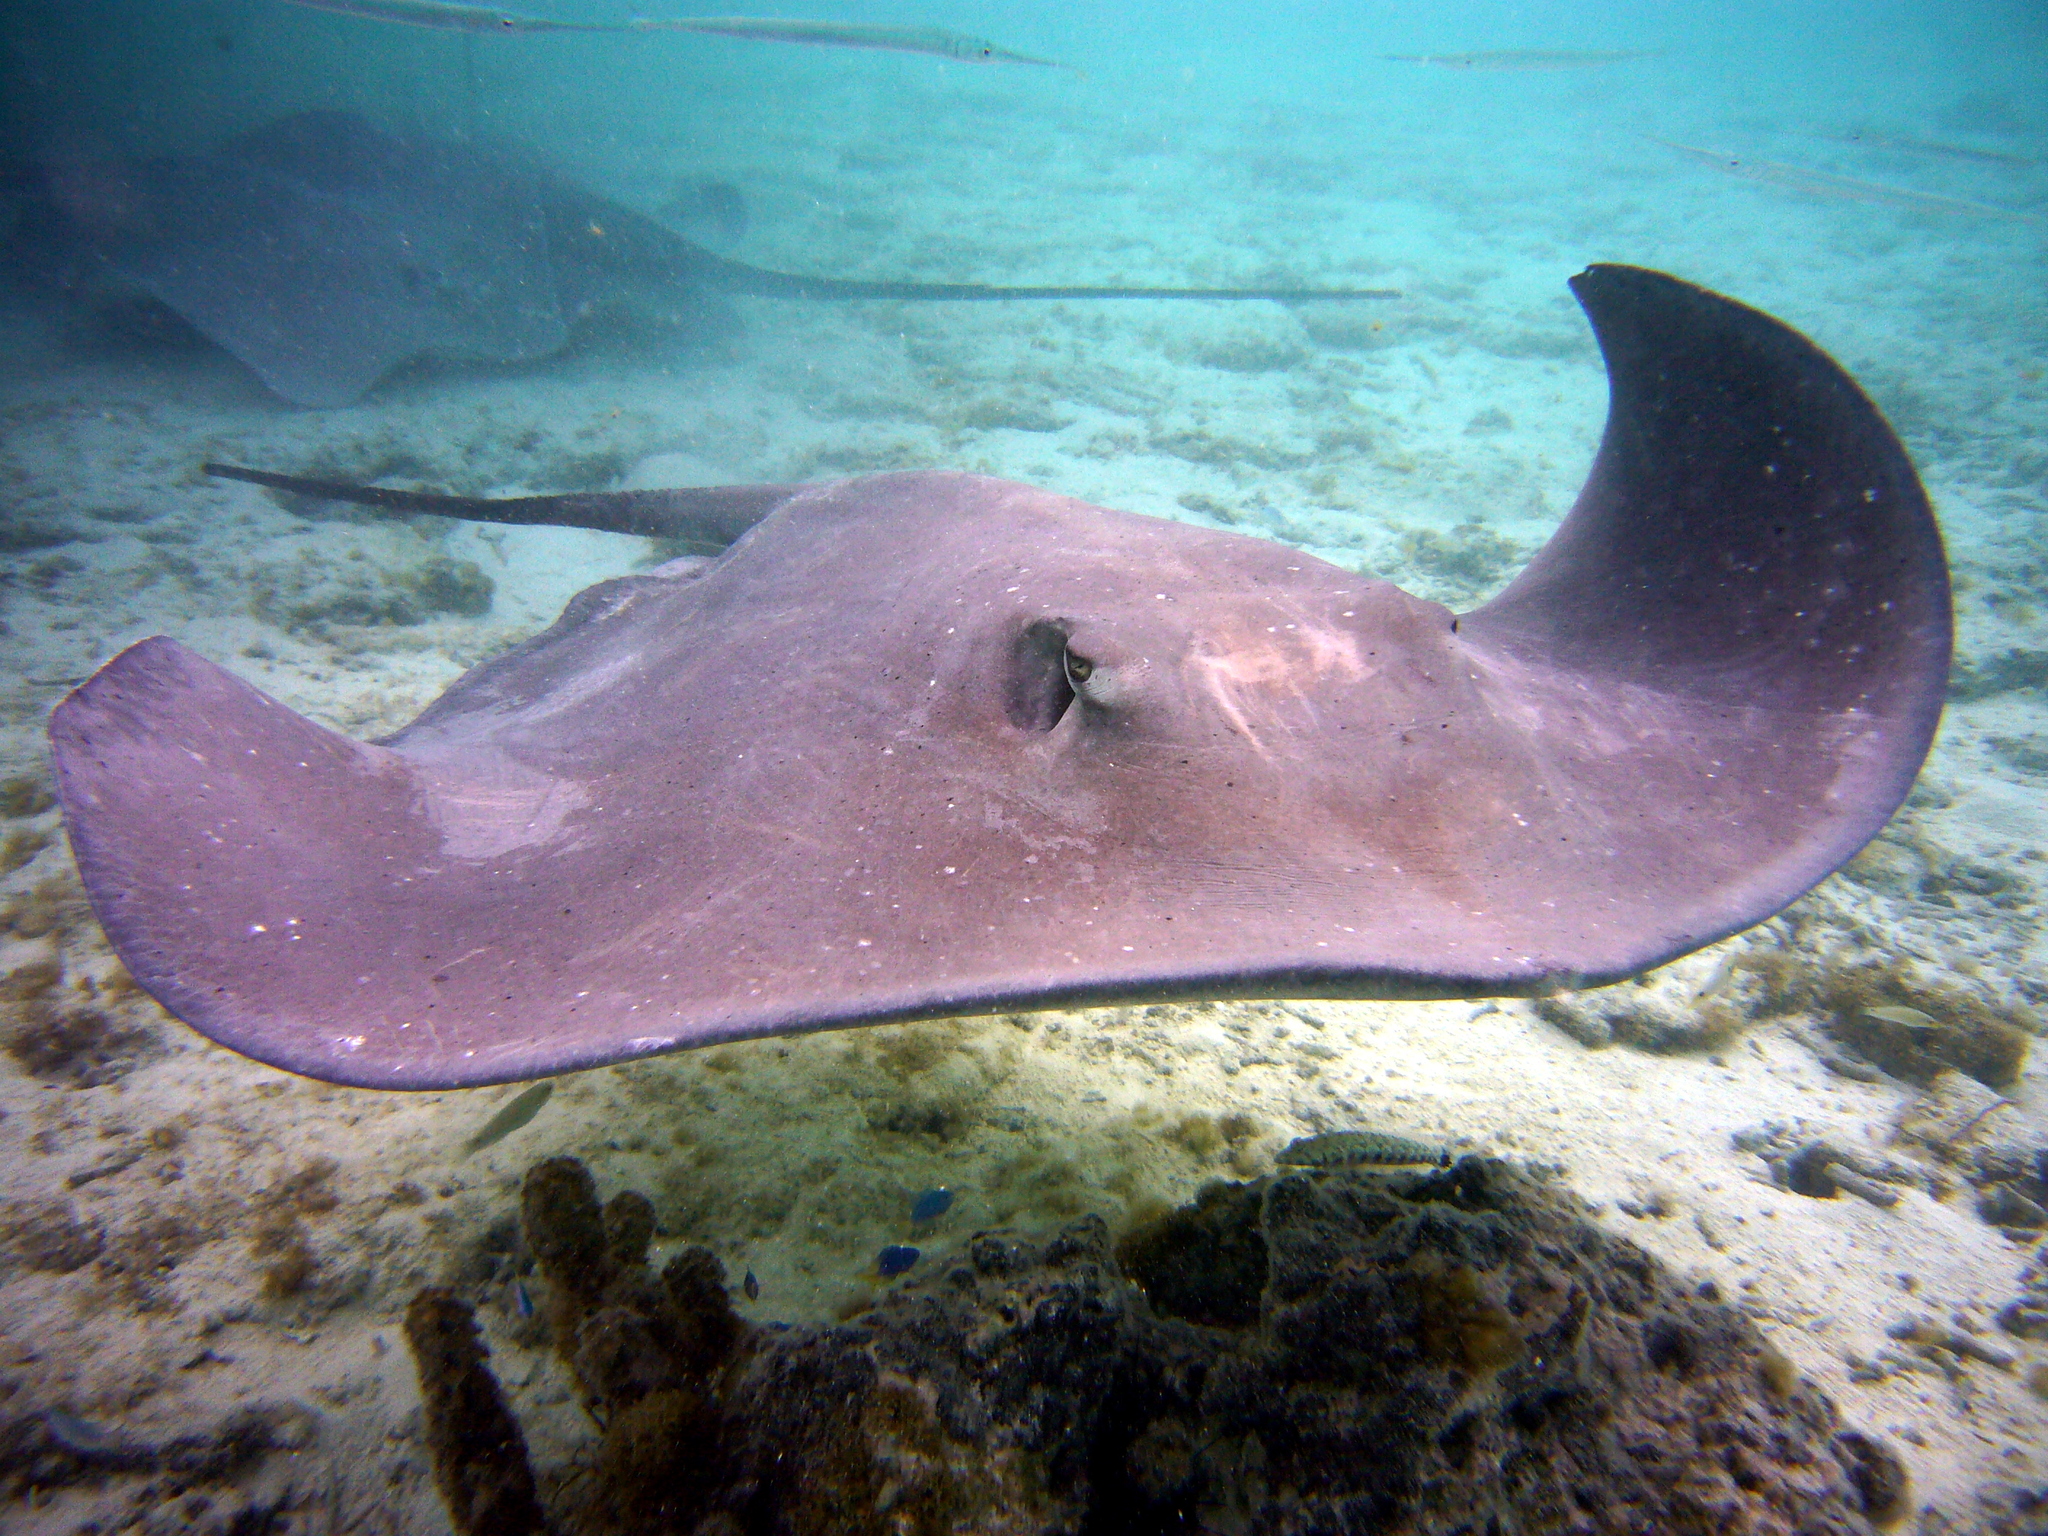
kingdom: Animalia
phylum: Chordata
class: Elasmobranchii
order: Myliobatiformes
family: Dasyatidae
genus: Pateobatis
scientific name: Pateobatis fai
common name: Pink whipray
